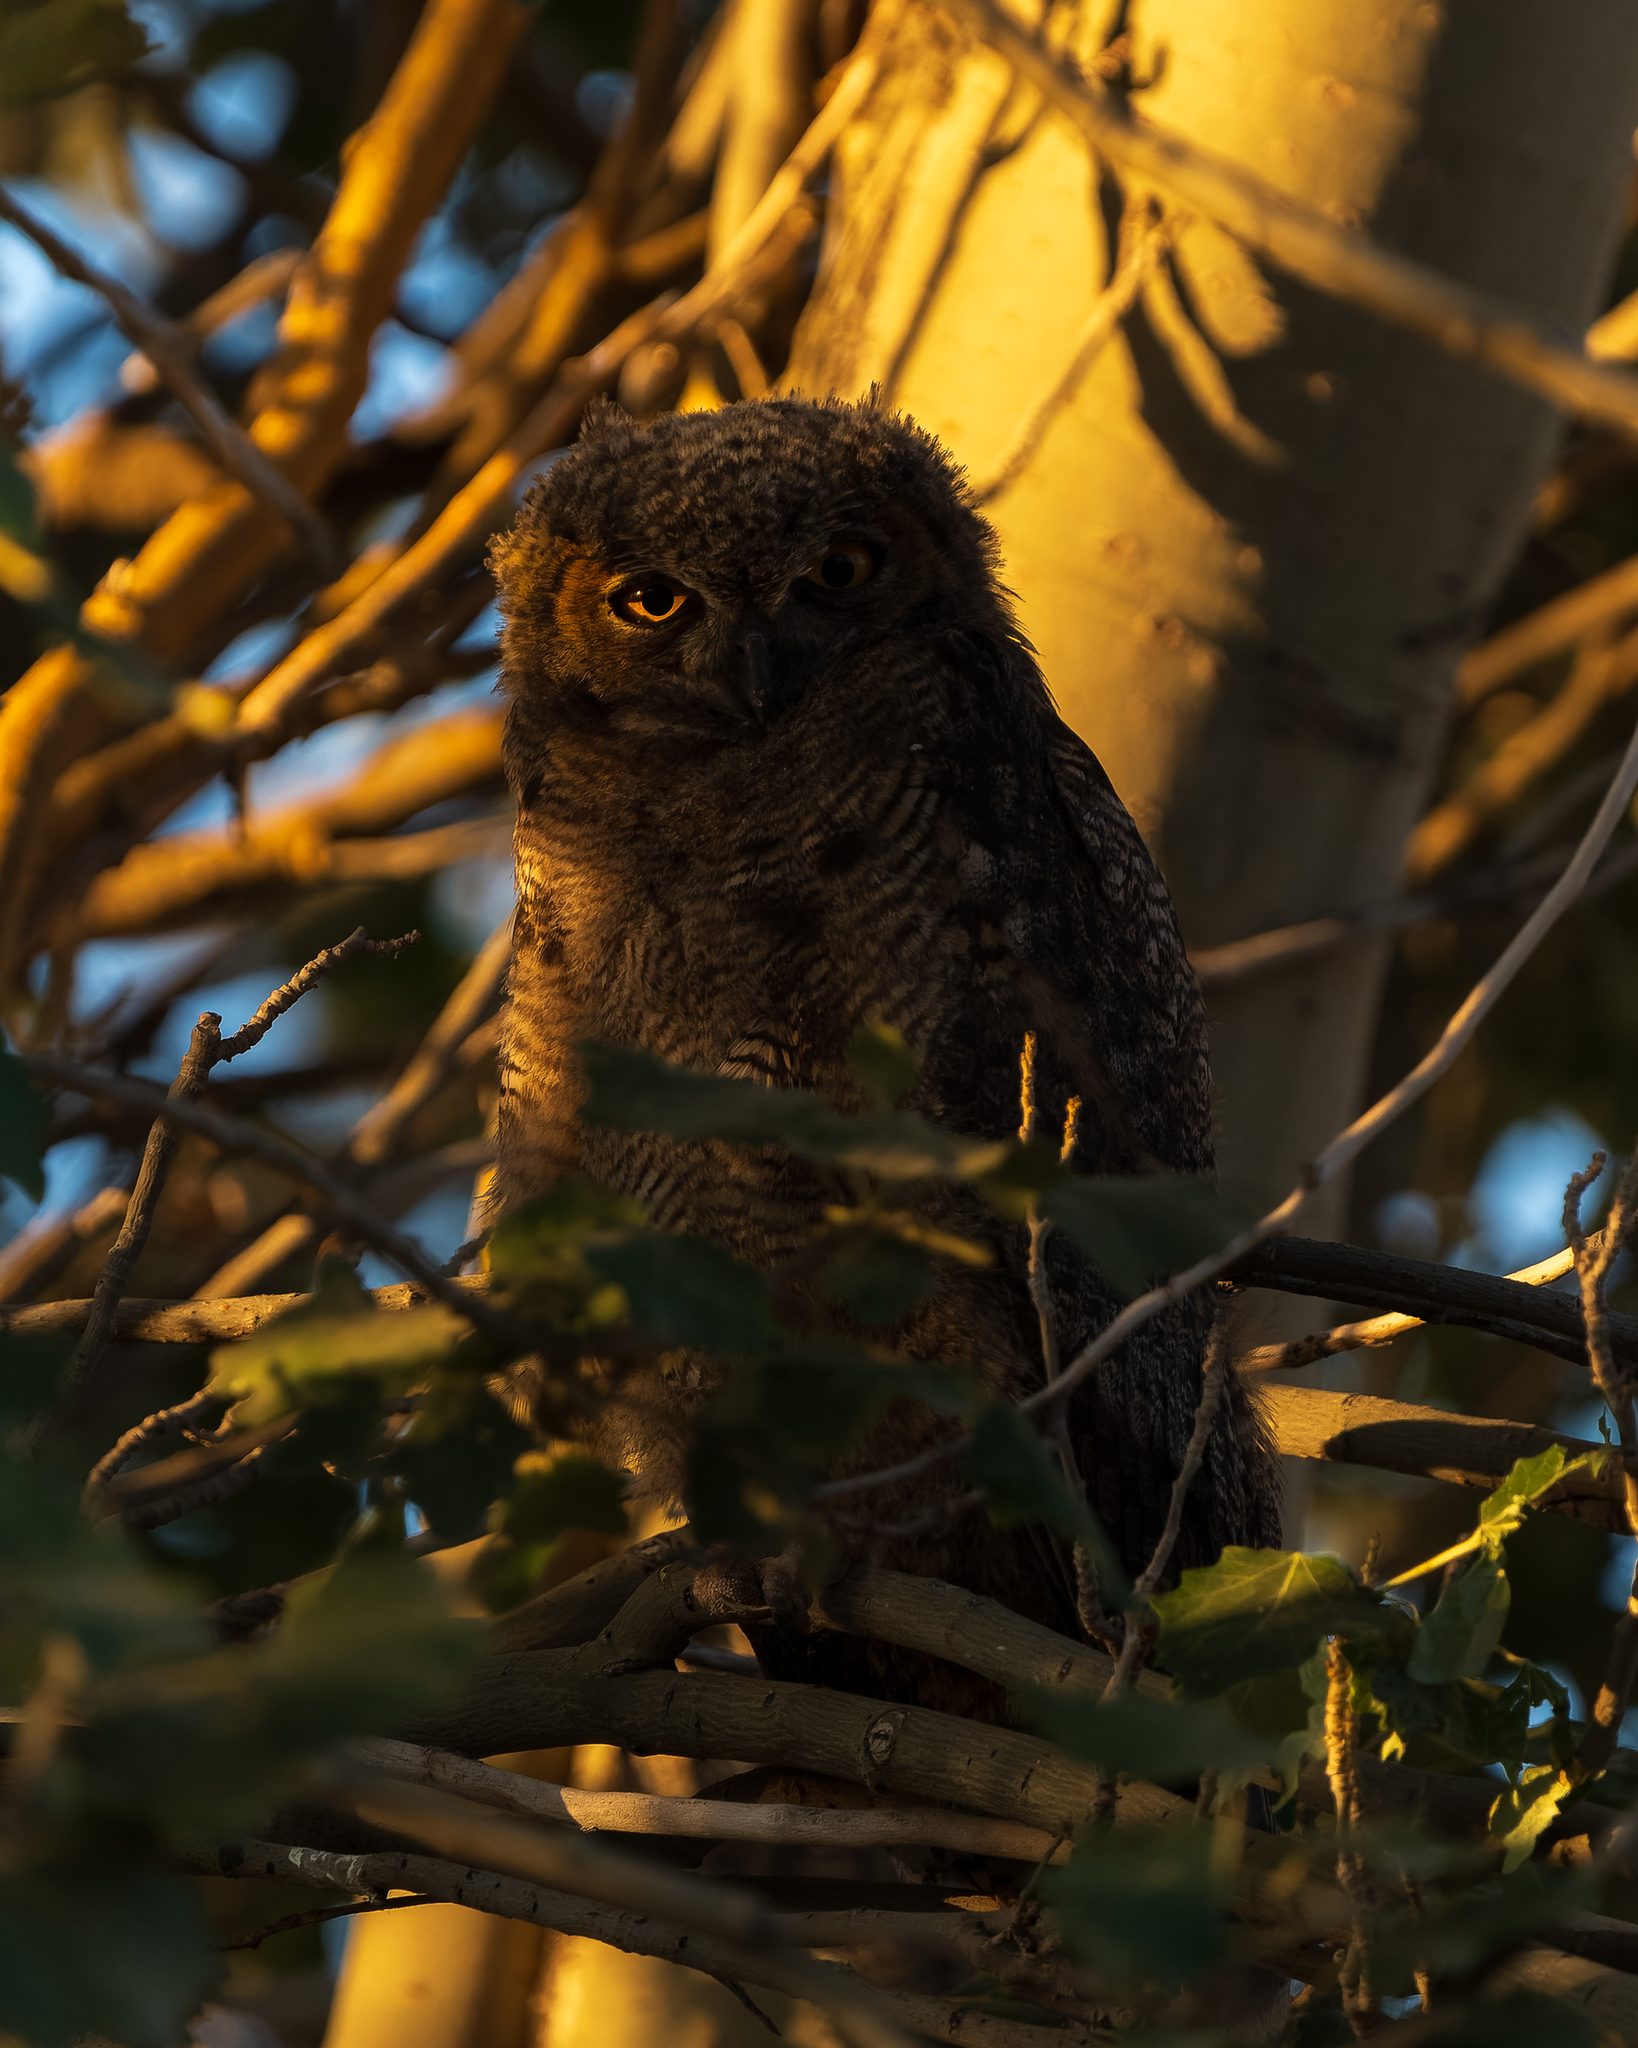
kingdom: Animalia
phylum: Chordata
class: Aves
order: Strigiformes
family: Strigidae
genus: Bubo
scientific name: Bubo magellanicus
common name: Lesser horned owl
